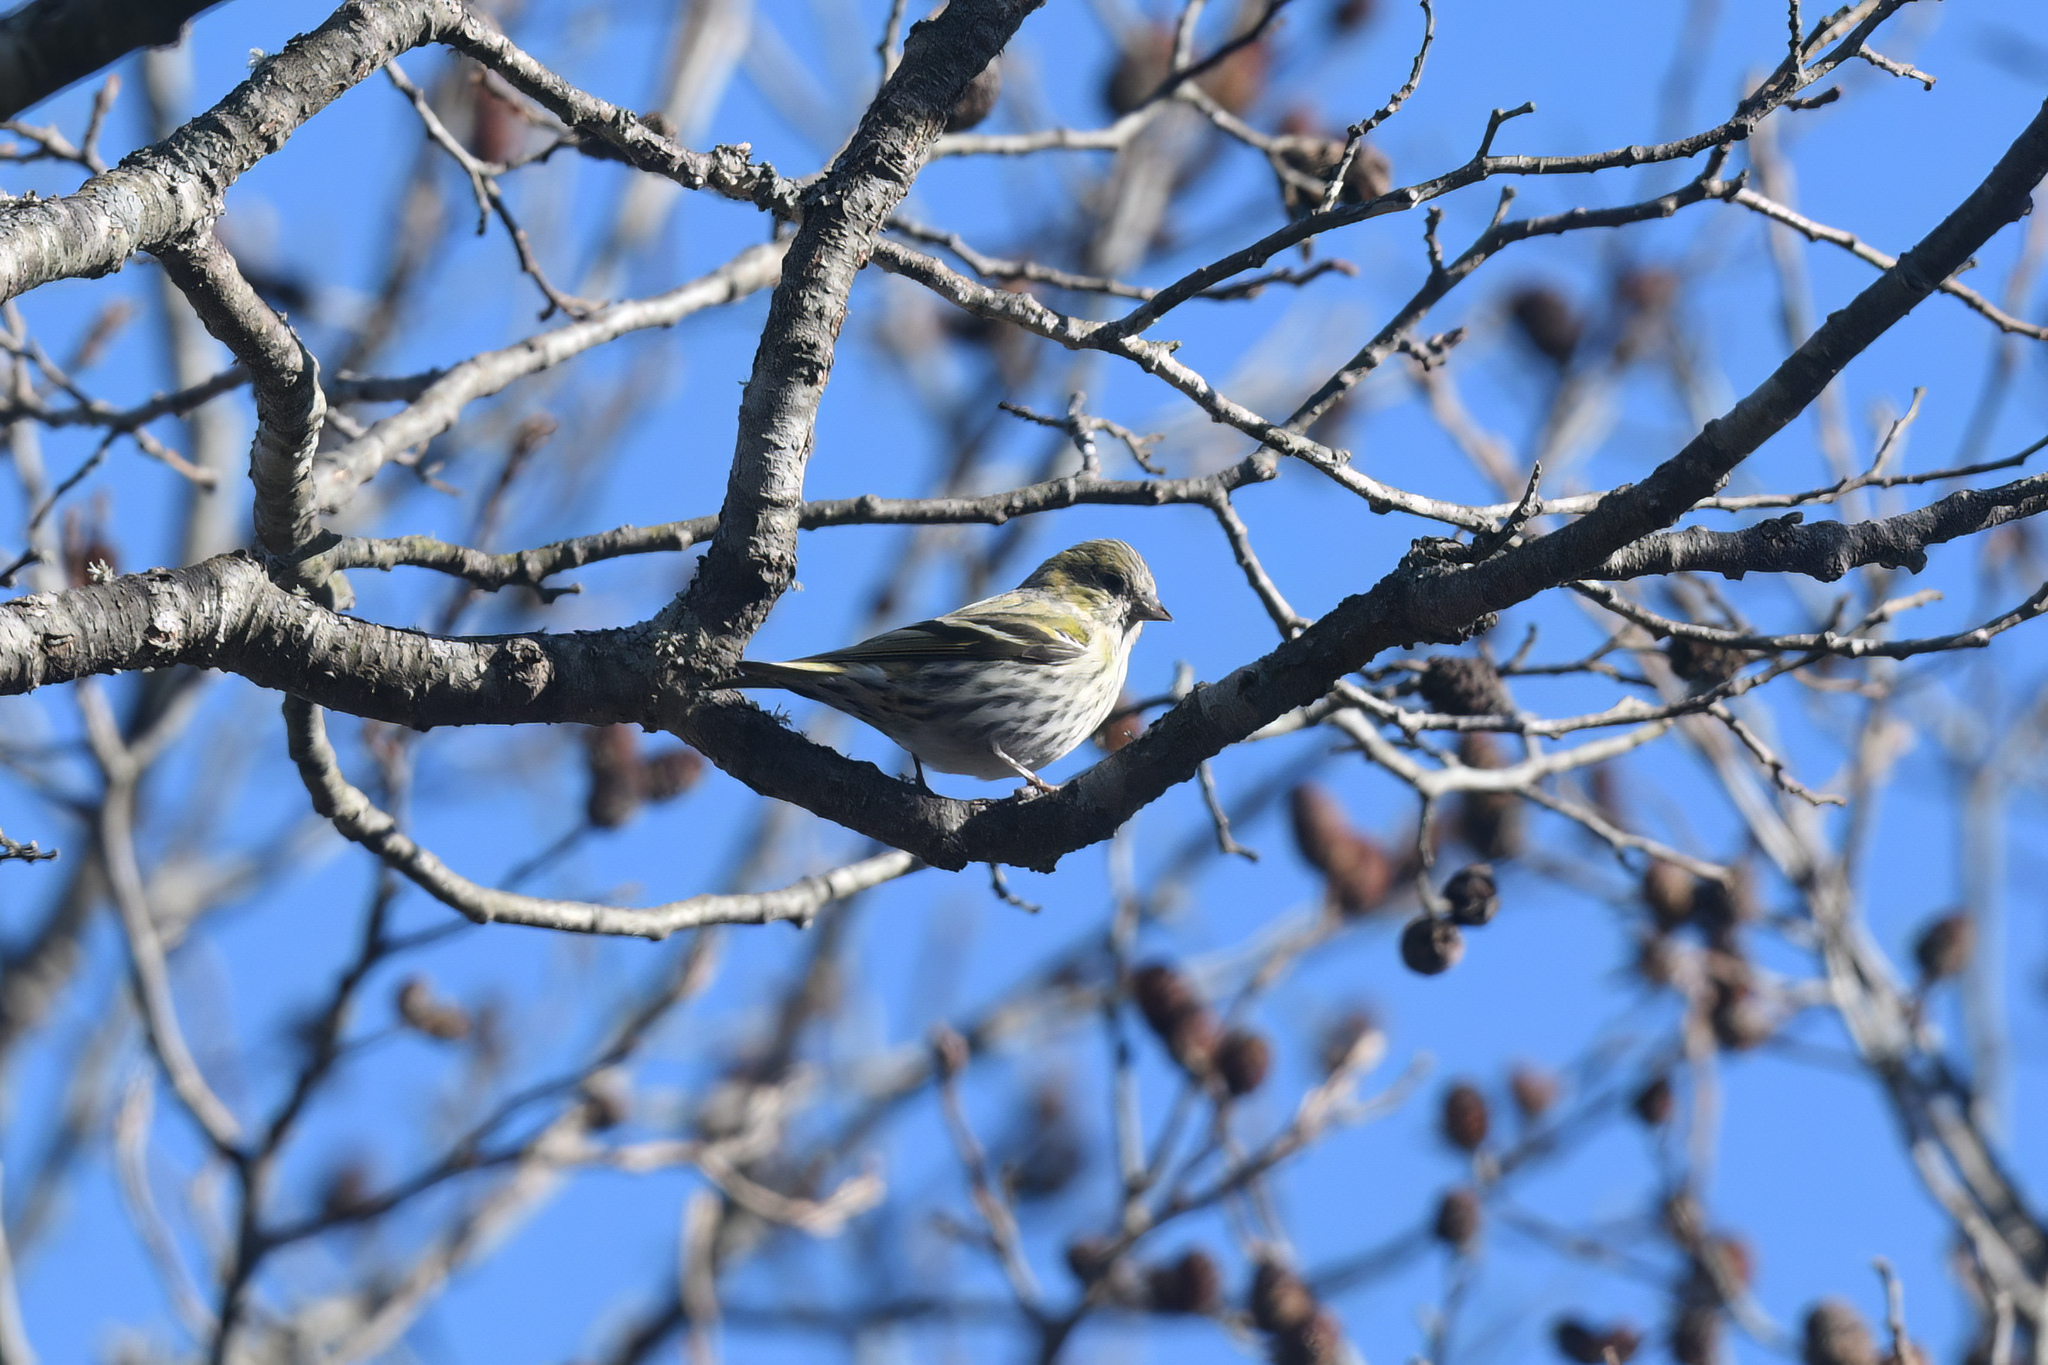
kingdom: Animalia
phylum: Chordata
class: Aves
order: Passeriformes
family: Fringillidae
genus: Spinus
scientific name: Spinus spinus
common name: Eurasian siskin
